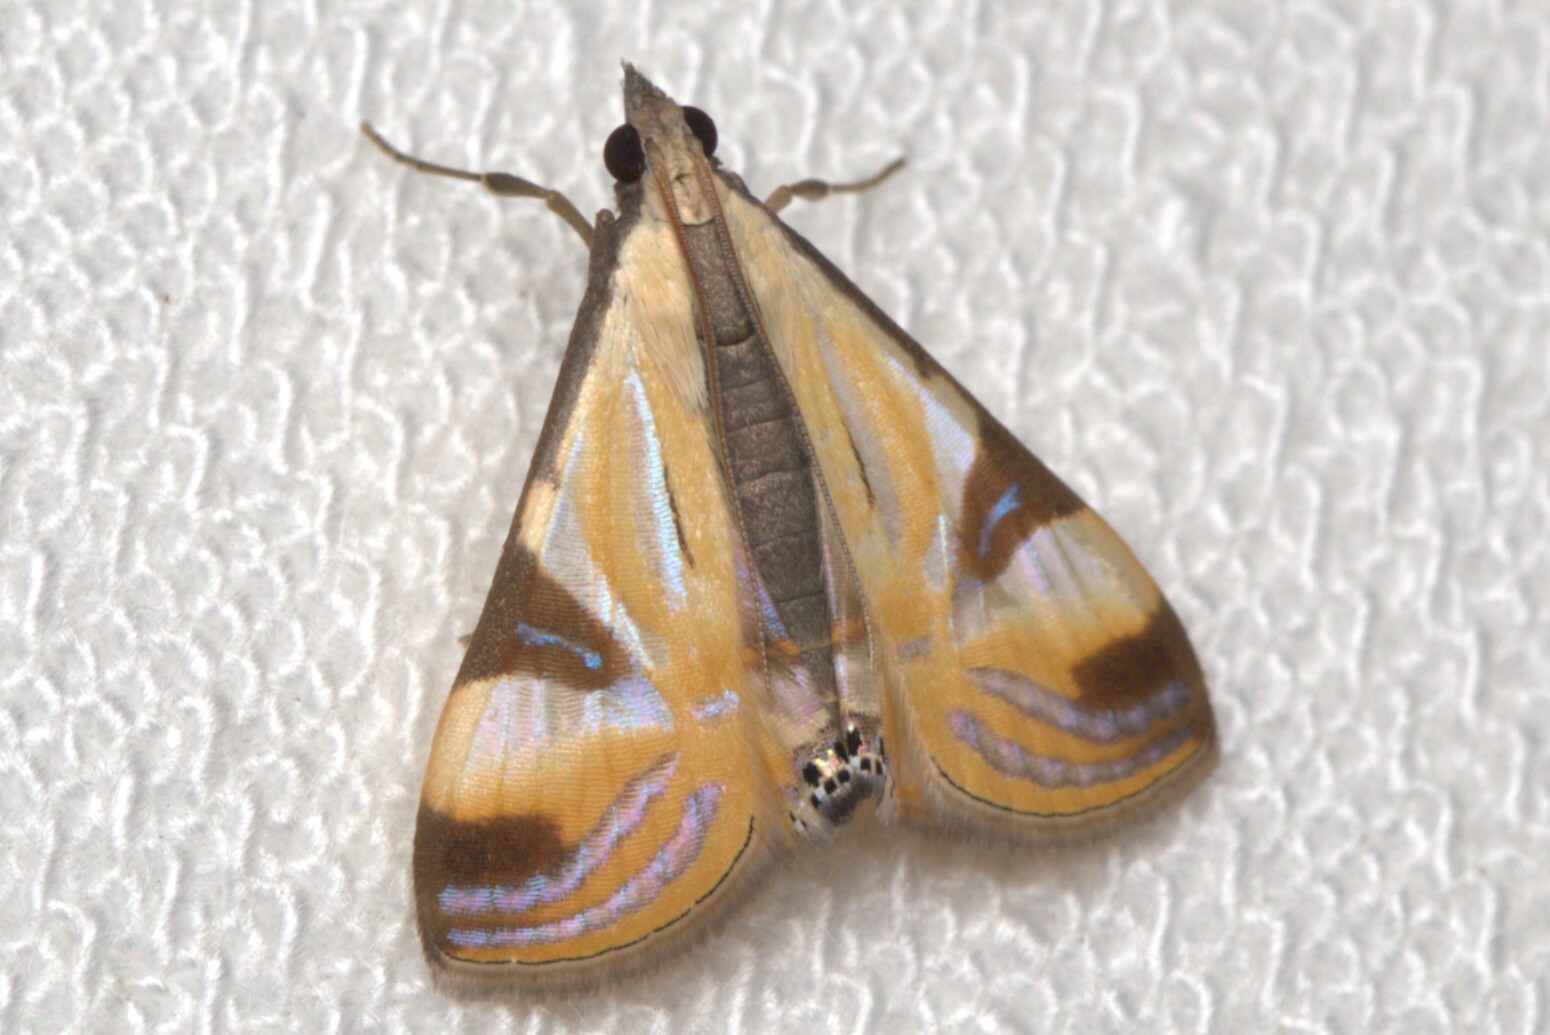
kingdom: Animalia
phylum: Arthropoda
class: Insecta
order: Lepidoptera
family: Crambidae
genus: Talanga
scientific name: Talanga tolumnialis
